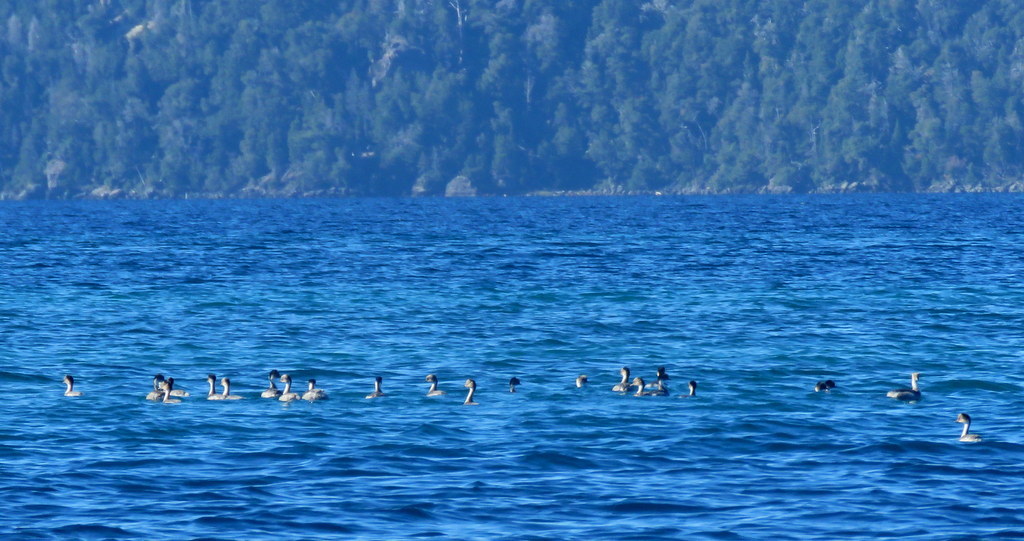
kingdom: Animalia
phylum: Chordata
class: Aves
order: Podicipediformes
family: Podicipedidae
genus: Podiceps
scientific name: Podiceps occipitalis
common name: Silvery grebe
